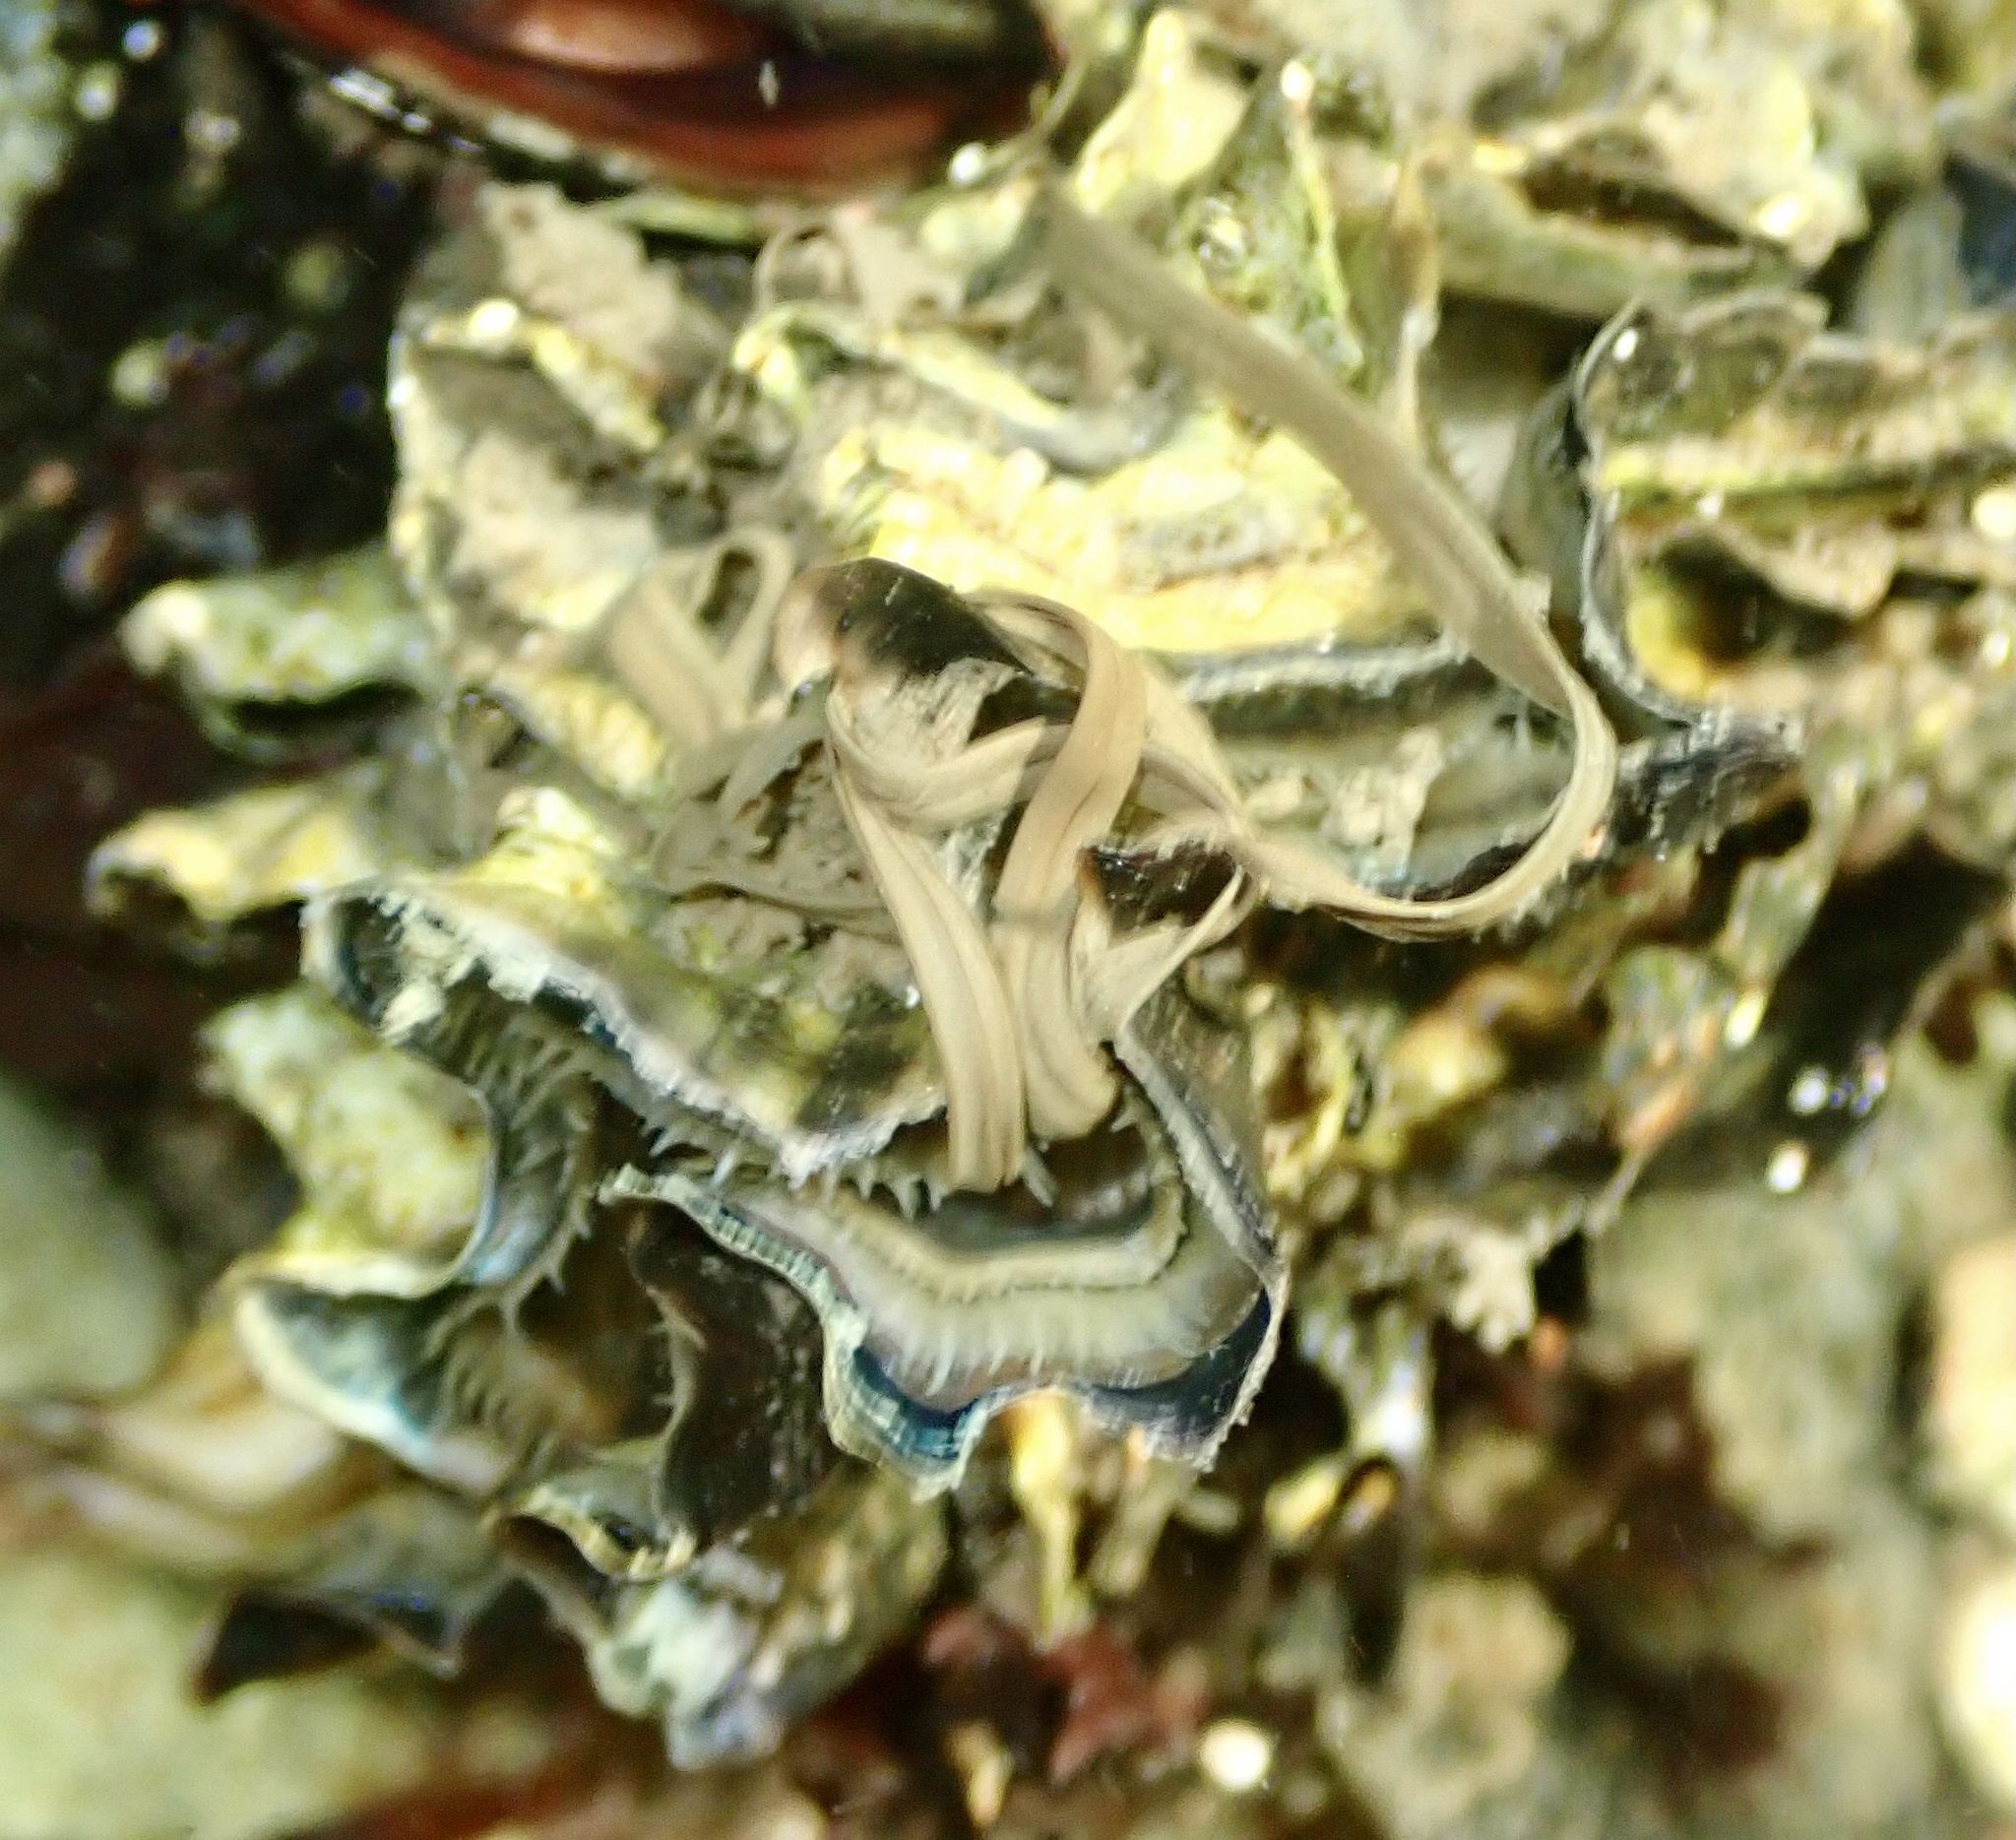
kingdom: Animalia
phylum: Mollusca
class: Bivalvia
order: Ostreida
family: Ostreidae
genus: Magallana
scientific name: Magallana gigas
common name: Pacific oyster
